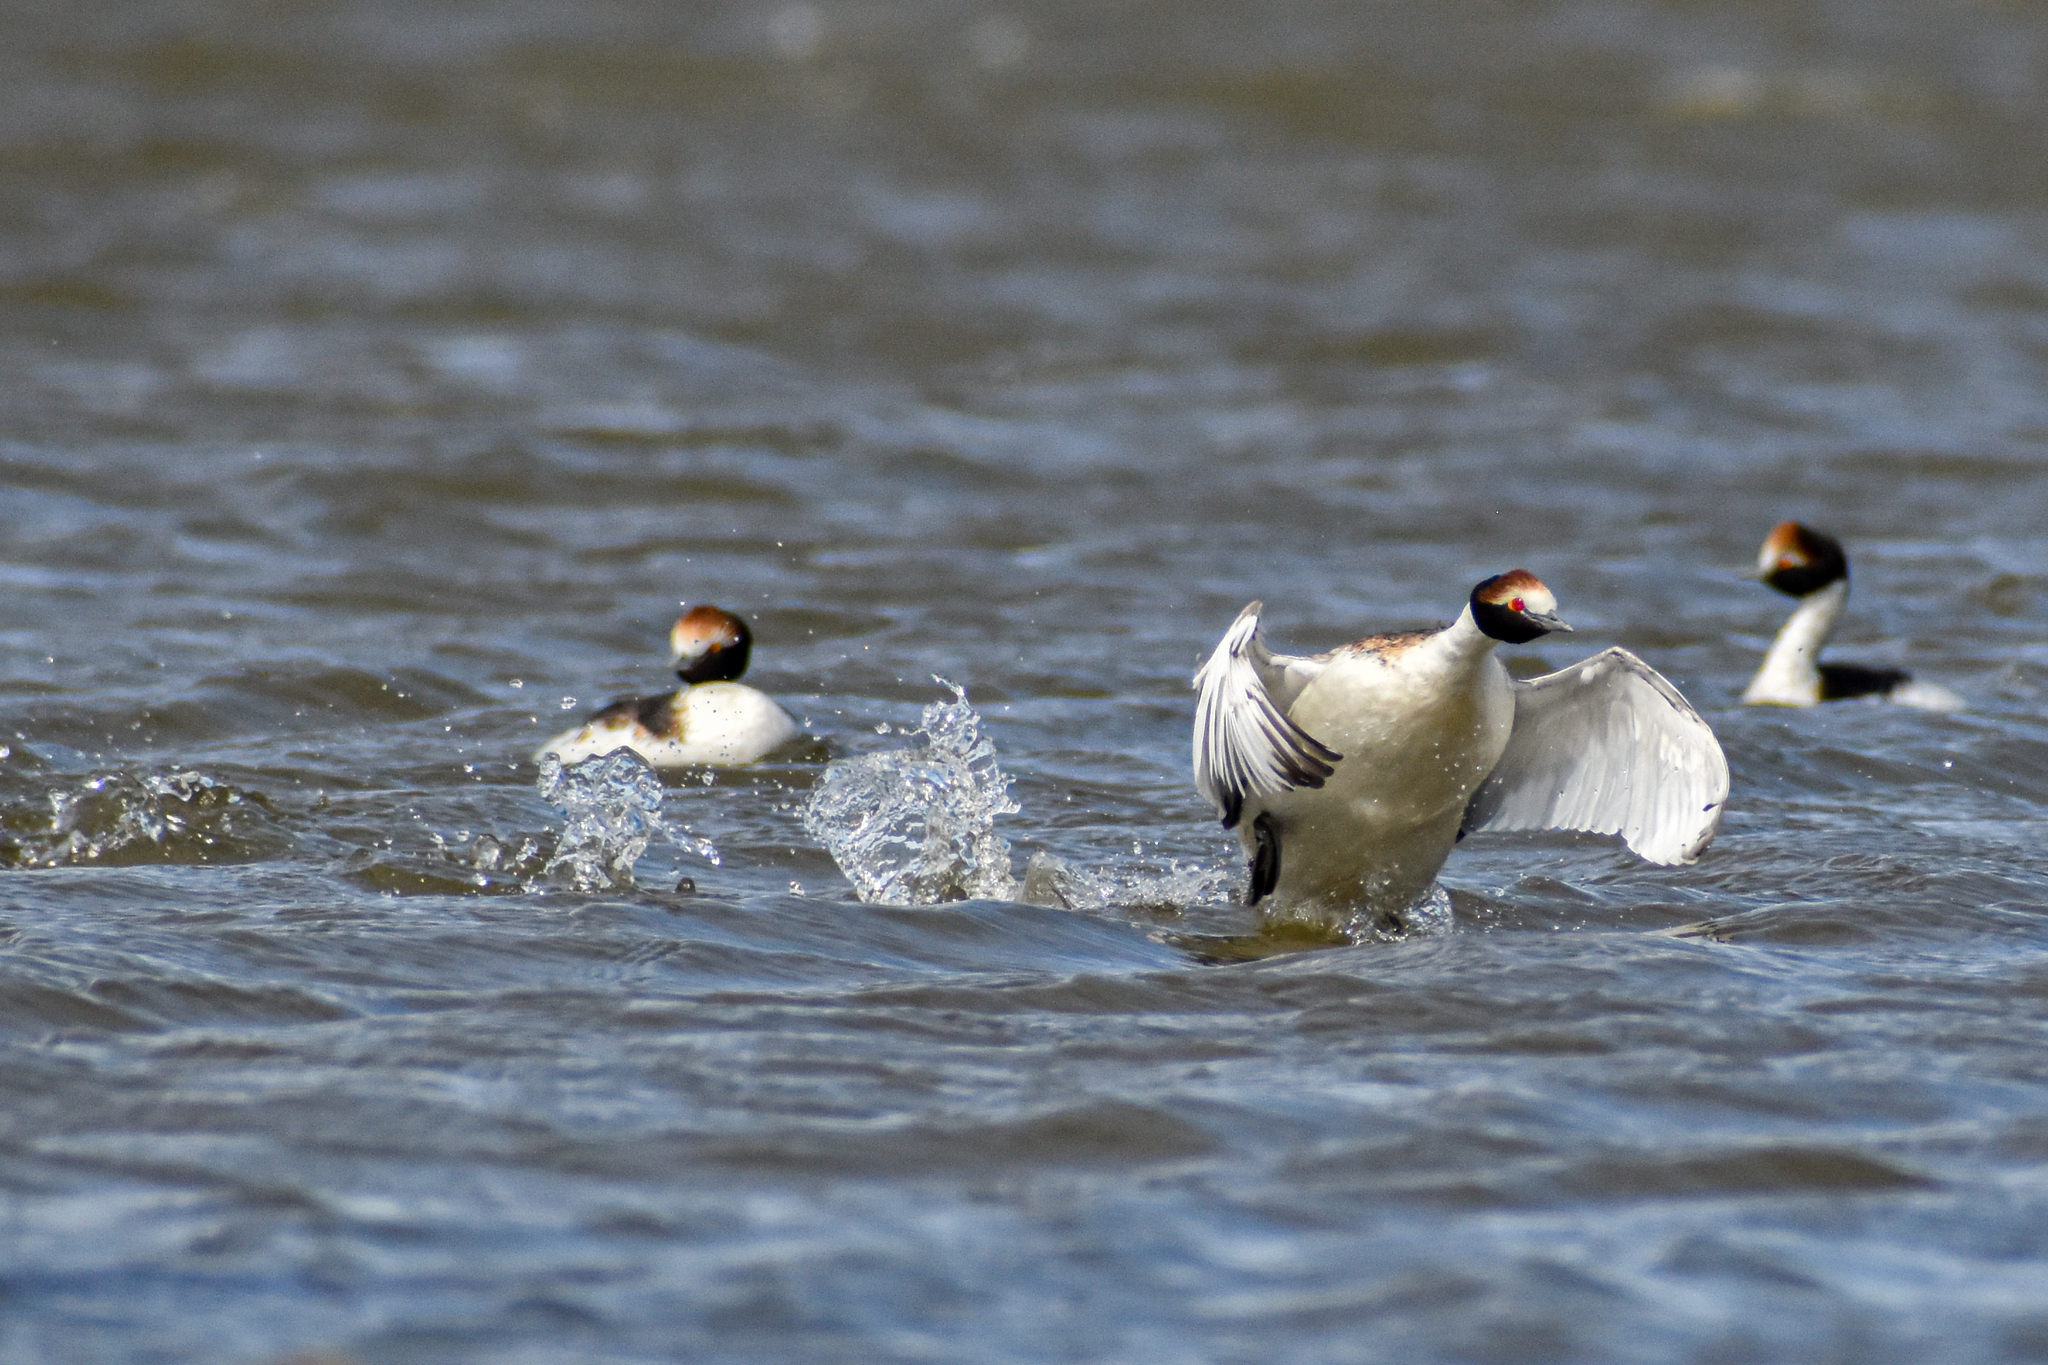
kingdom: Animalia
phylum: Chordata
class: Aves
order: Podicipediformes
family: Podicipedidae
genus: Podiceps
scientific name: Podiceps gallardoi
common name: Hooded grebe
